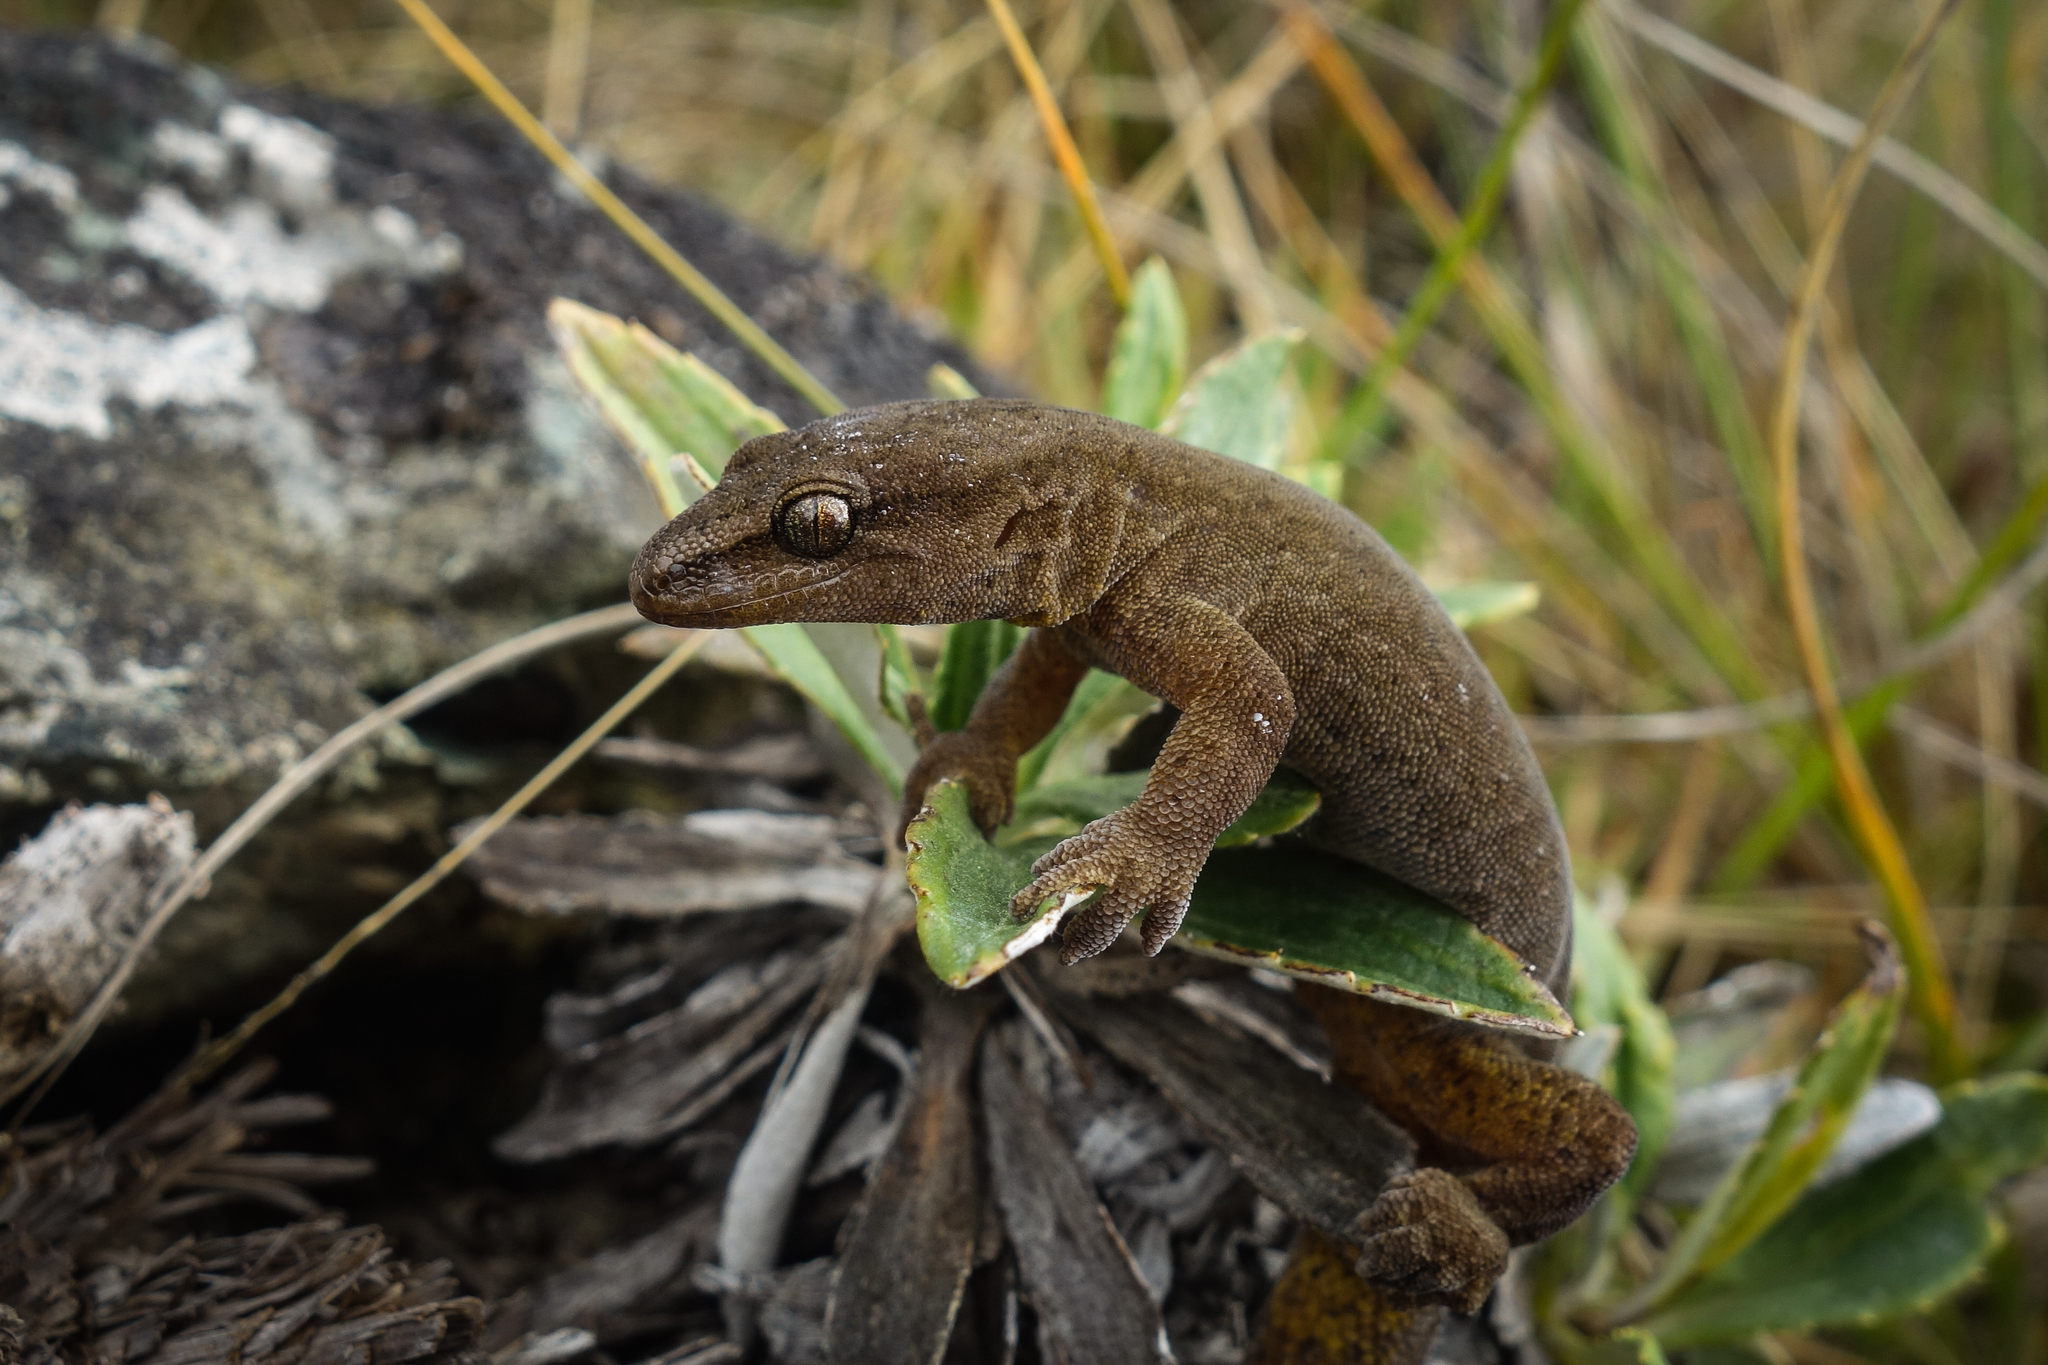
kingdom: Animalia
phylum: Chordata
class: Squamata
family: Diplodactylidae
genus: Woodworthia
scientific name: Woodworthia
